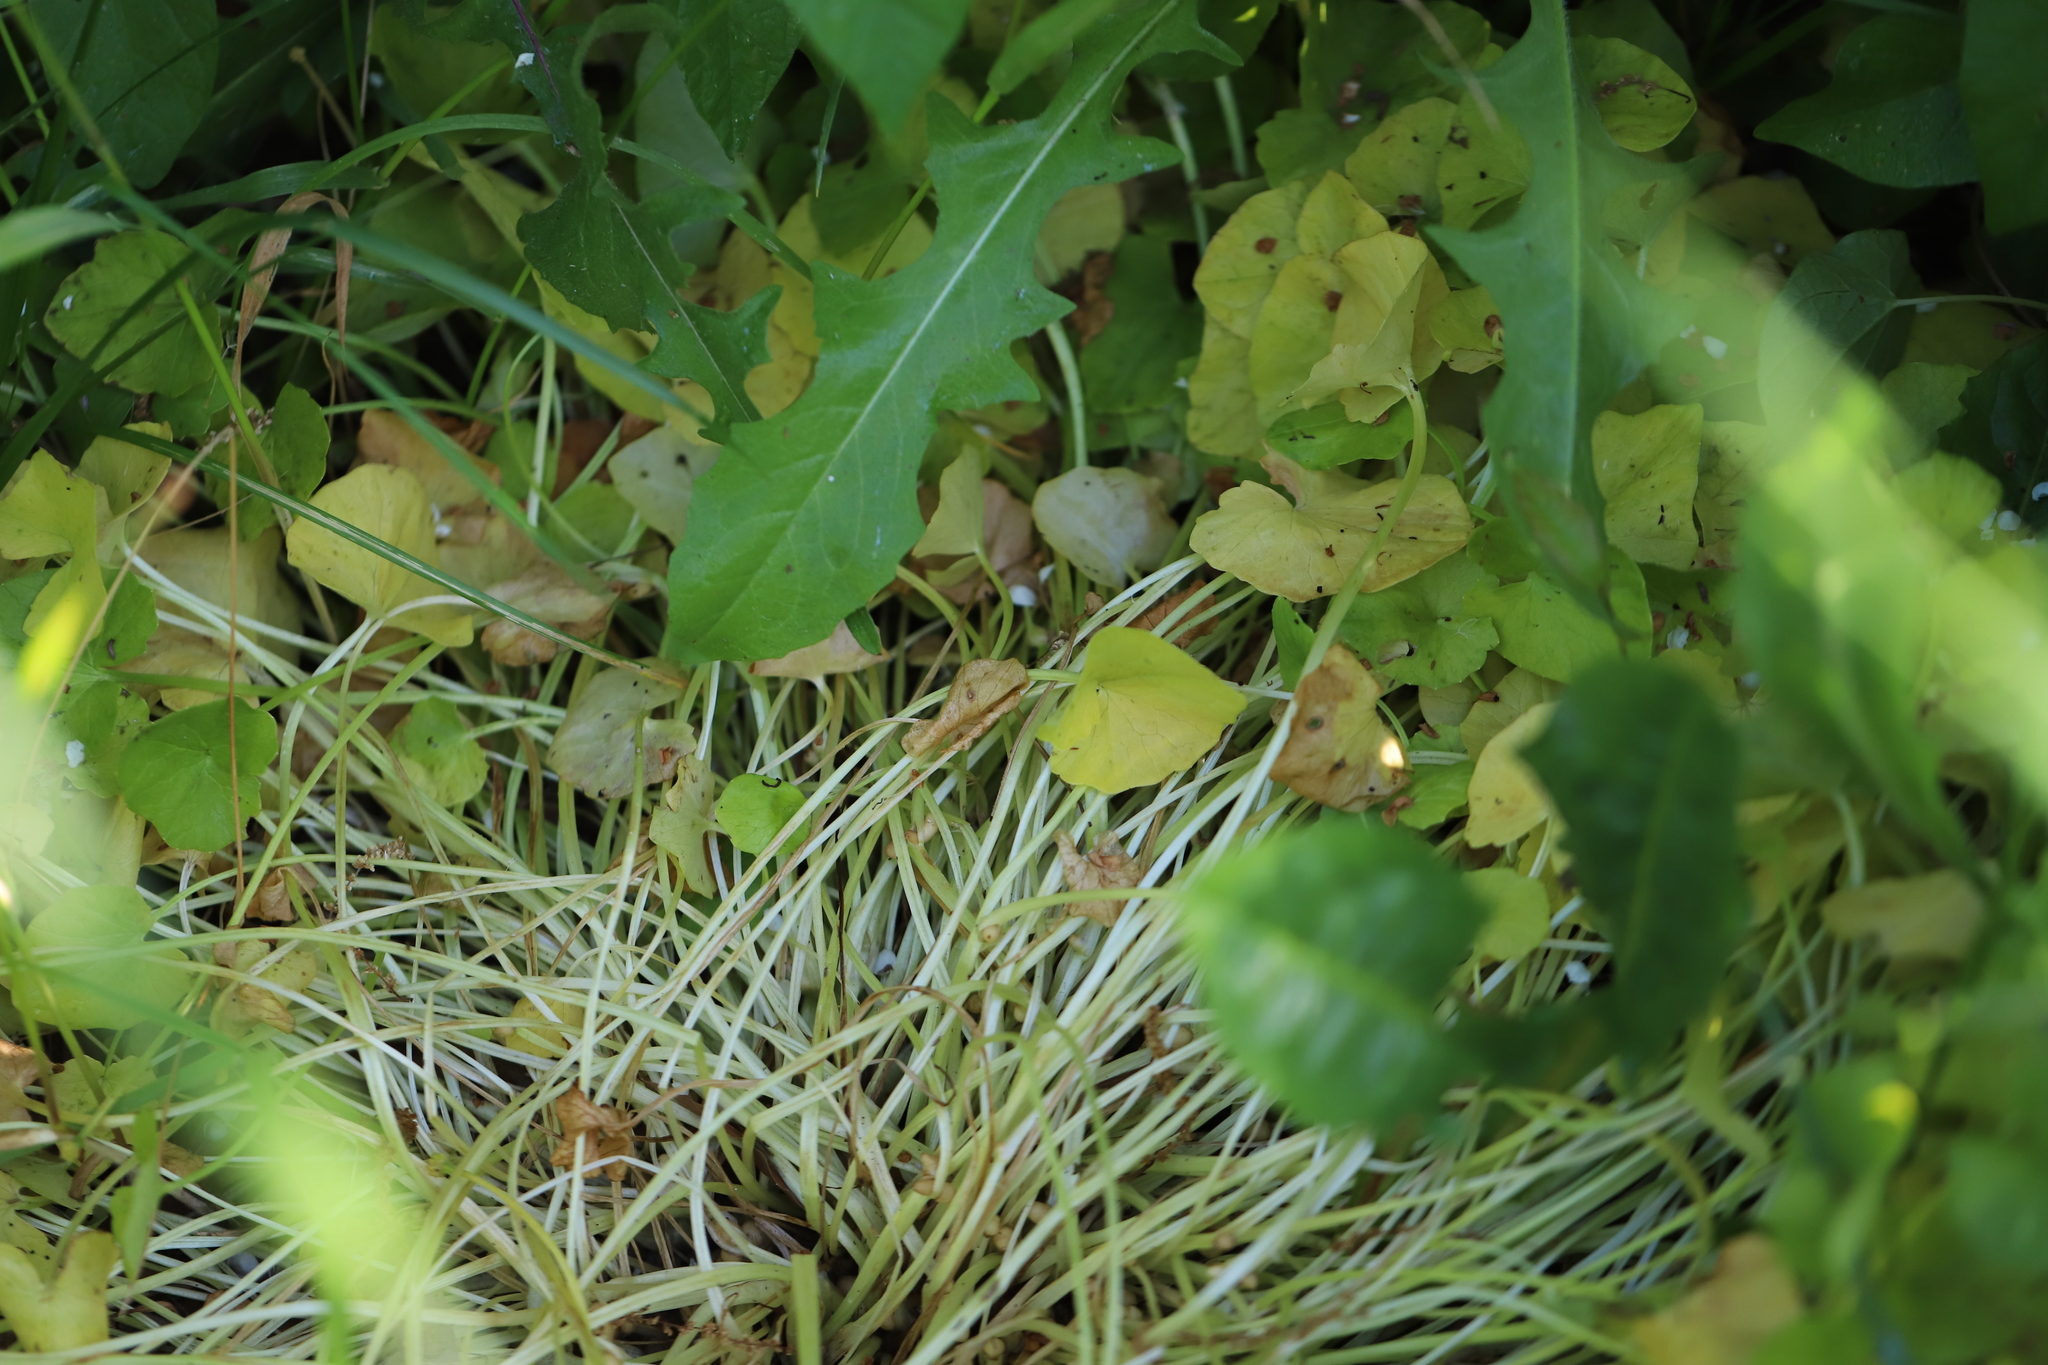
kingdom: Plantae
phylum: Tracheophyta
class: Magnoliopsida
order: Ranunculales
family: Ranunculaceae
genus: Ficaria
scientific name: Ficaria verna
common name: Lesser celandine
